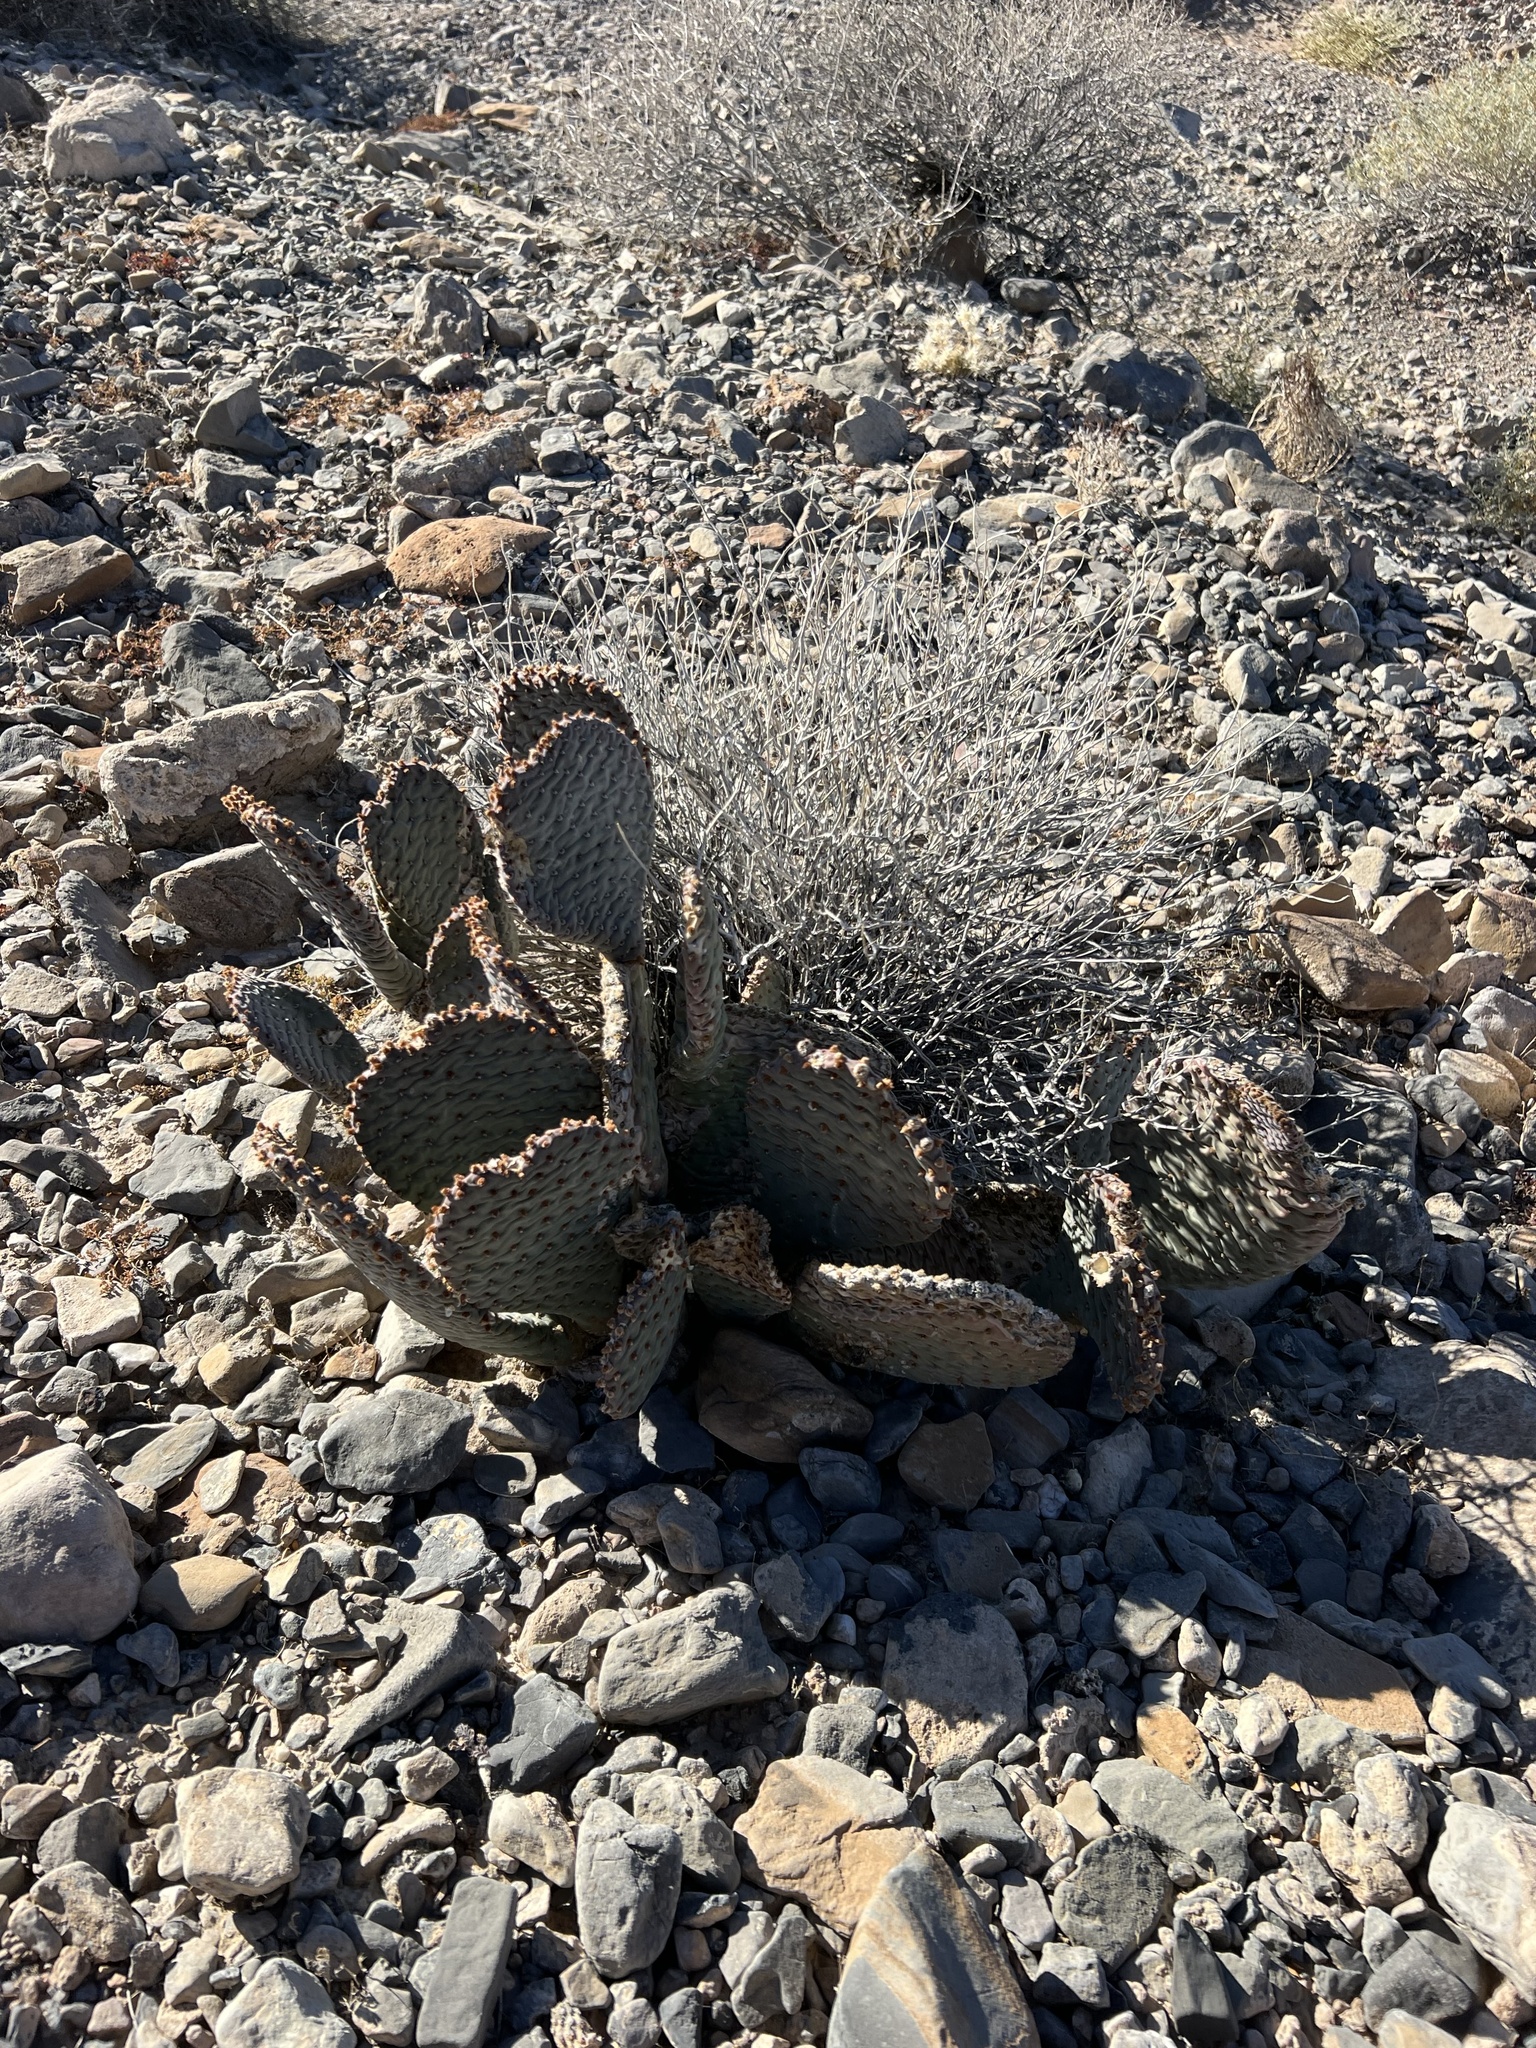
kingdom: Plantae
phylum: Tracheophyta
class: Magnoliopsida
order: Caryophyllales
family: Cactaceae
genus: Opuntia
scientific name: Opuntia basilaris
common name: Beavertail prickly-pear
